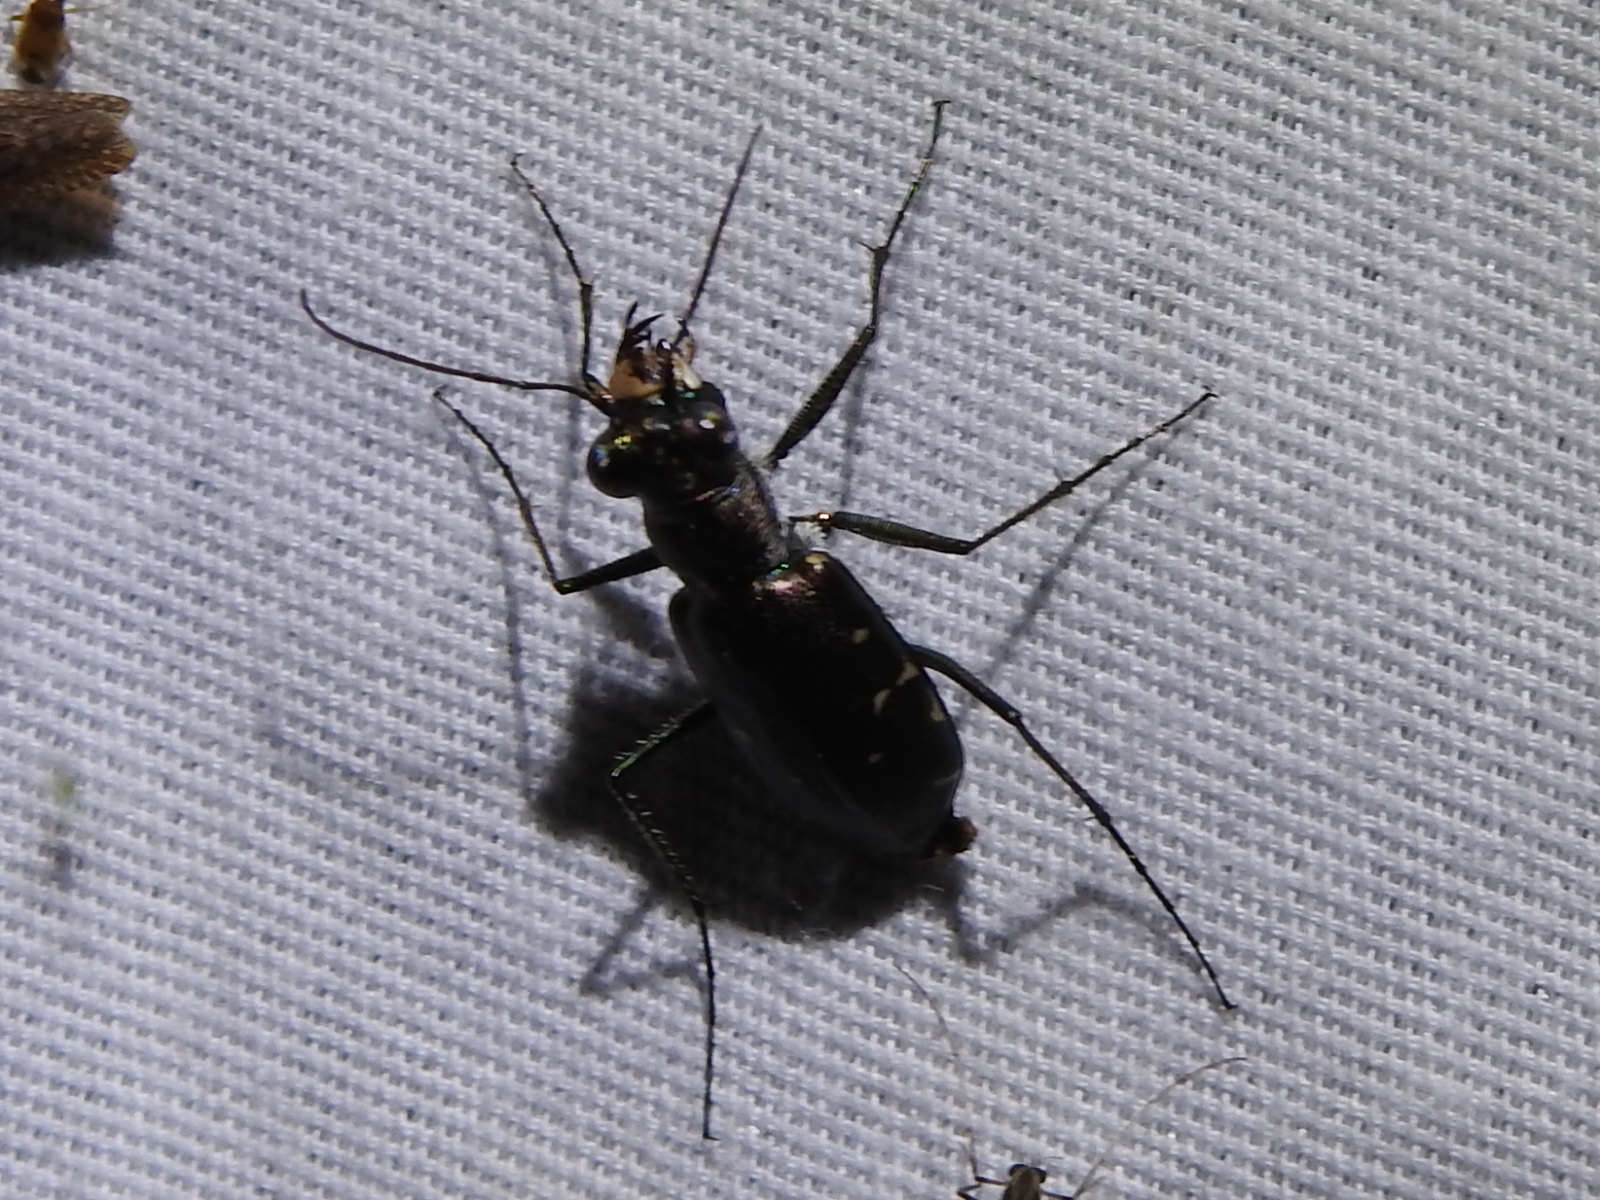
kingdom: Animalia
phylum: Arthropoda
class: Insecta
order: Coleoptera
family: Carabidae
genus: Cicindela
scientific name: Cicindela punctulata
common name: Punctured tiger beetle
